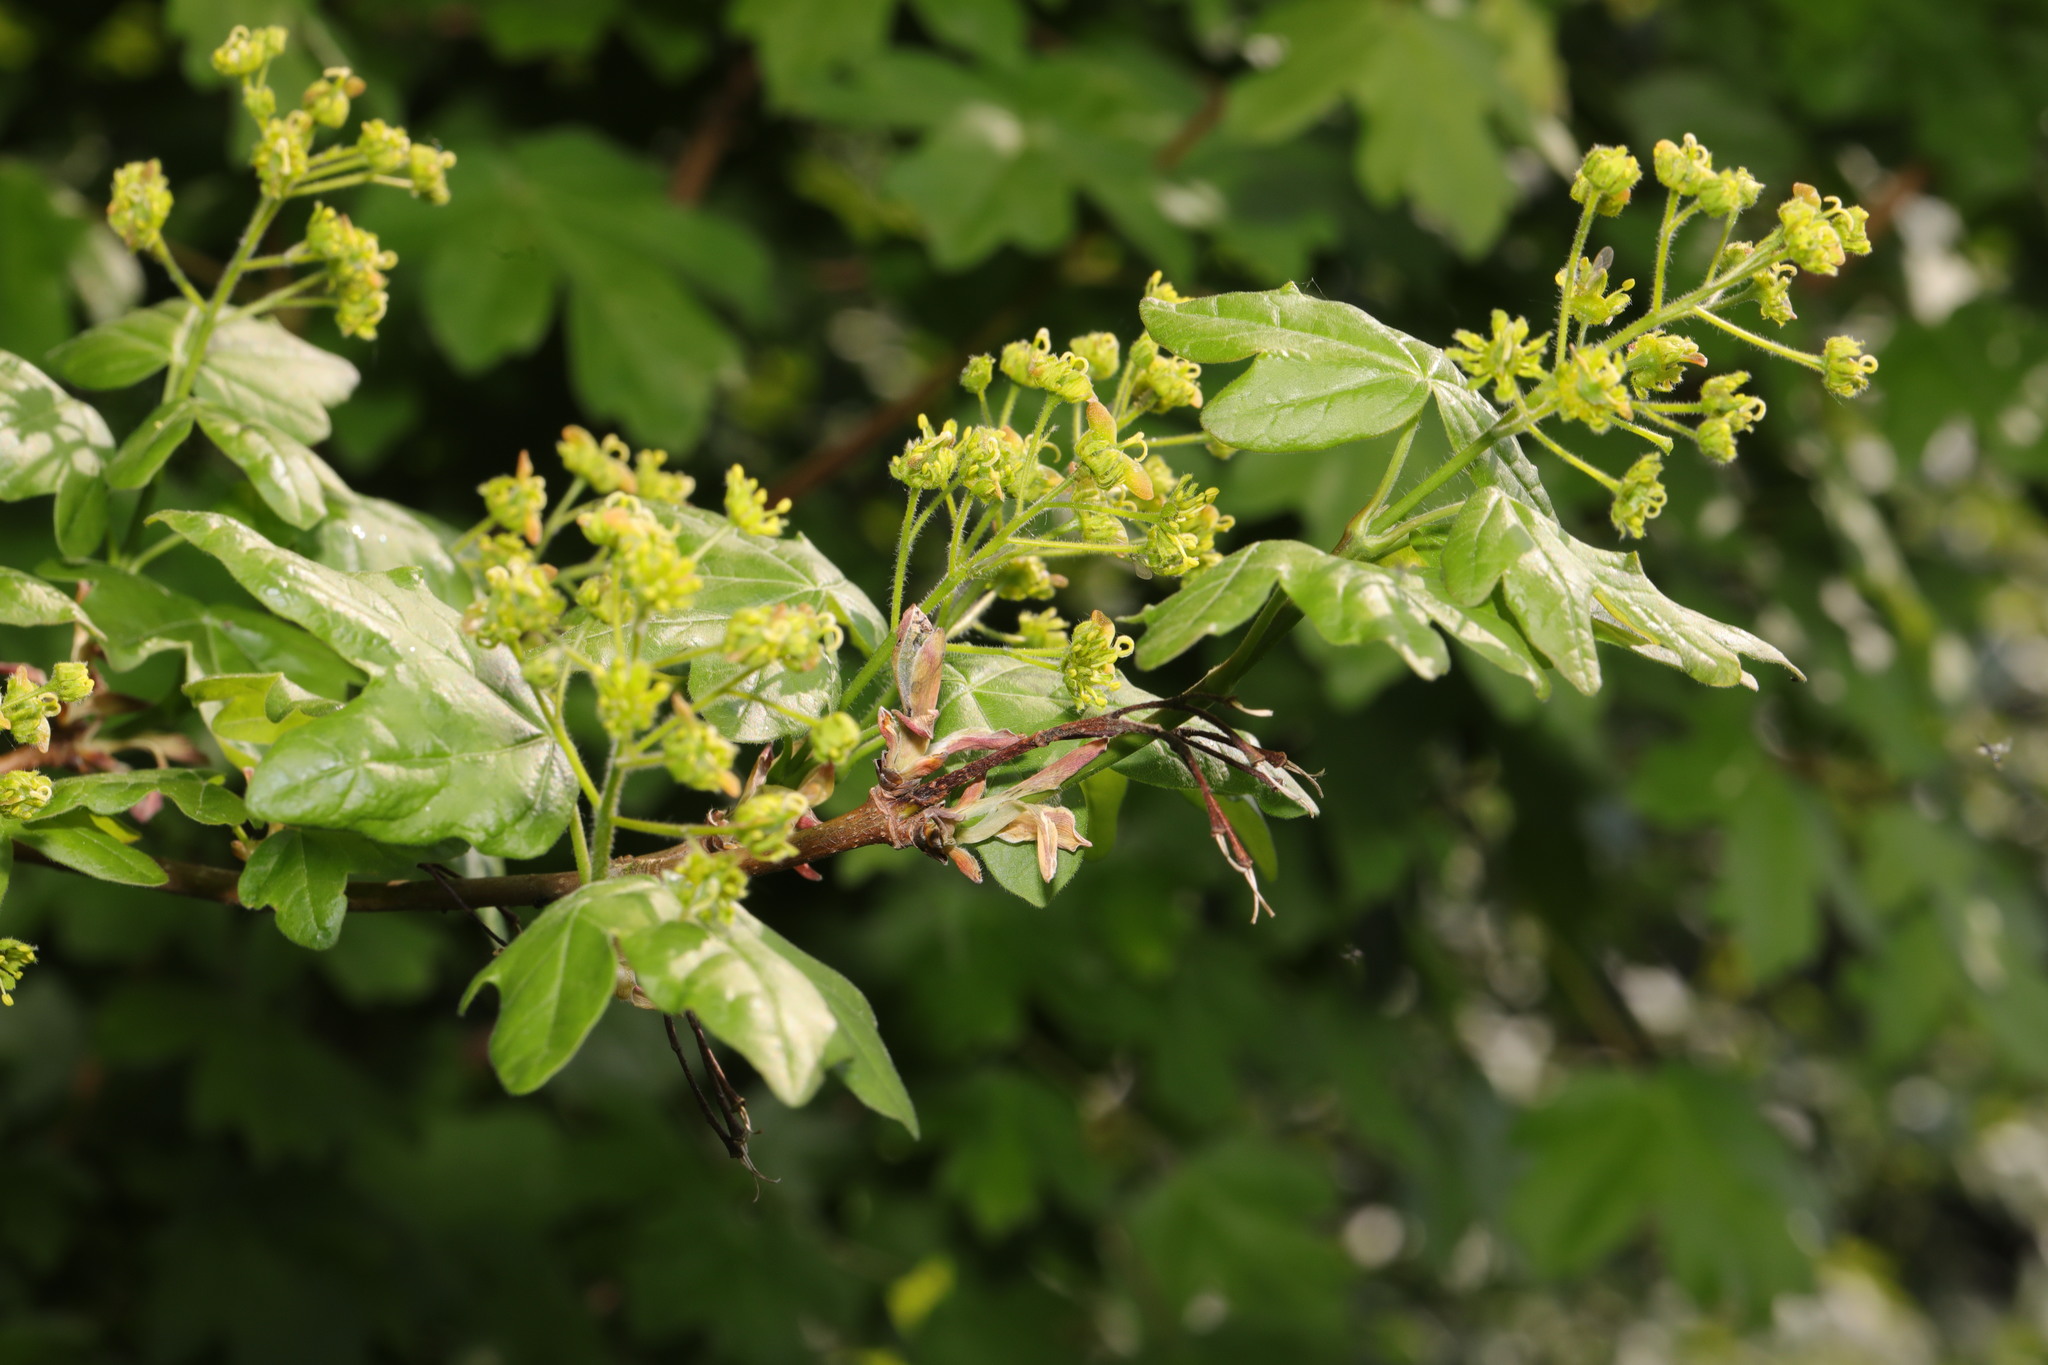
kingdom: Plantae
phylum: Tracheophyta
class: Magnoliopsida
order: Sapindales
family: Sapindaceae
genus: Acer
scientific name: Acer campestre
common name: Field maple
